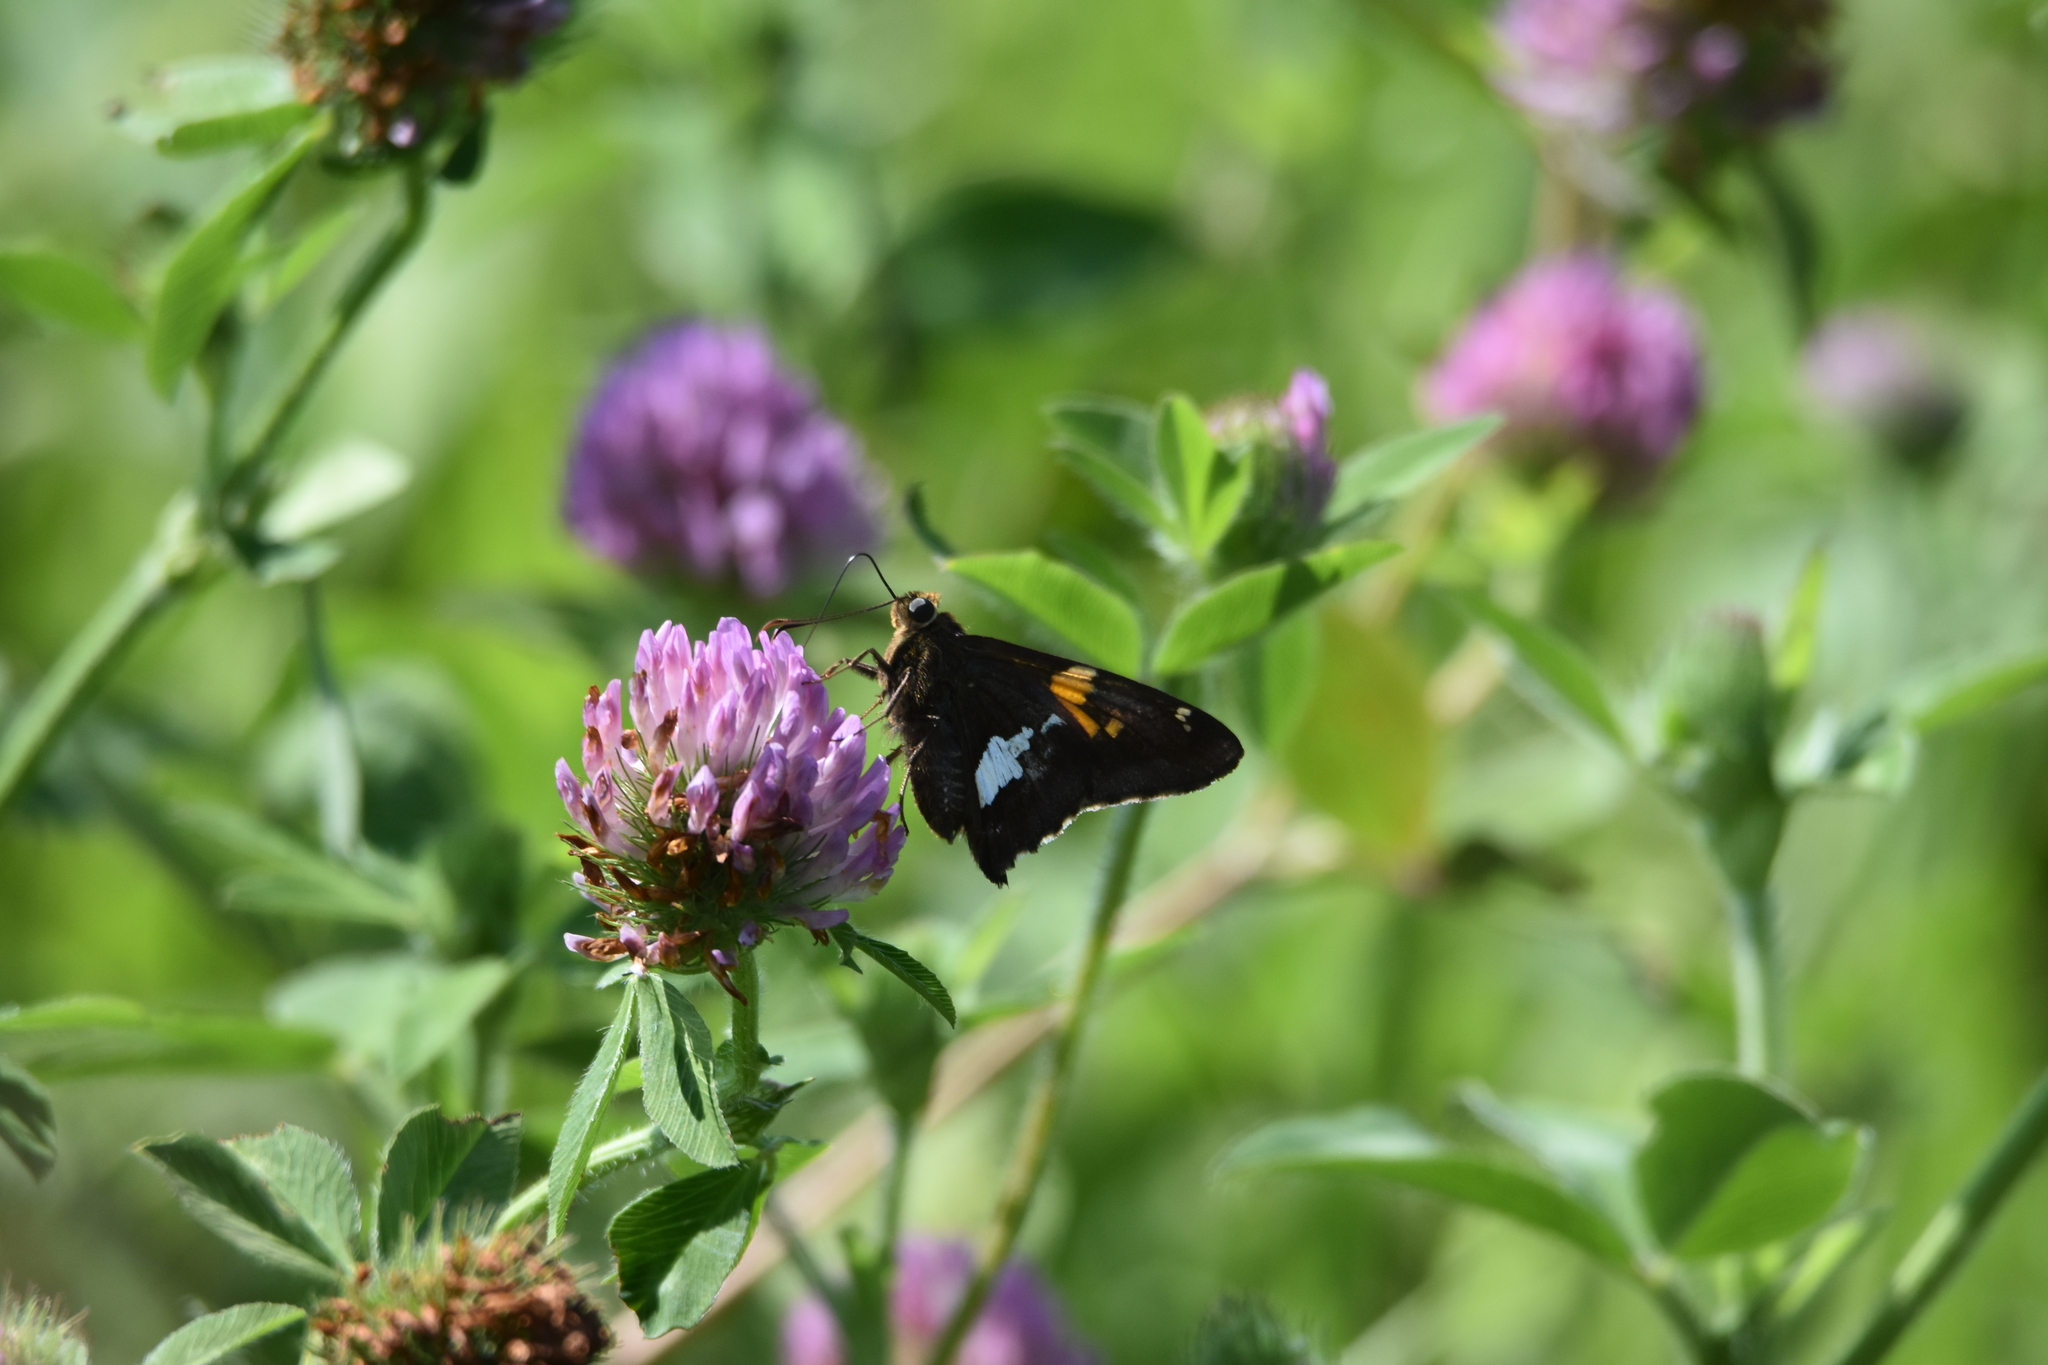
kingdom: Animalia
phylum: Arthropoda
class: Insecta
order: Lepidoptera
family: Hesperiidae
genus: Epargyreus
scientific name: Epargyreus clarus
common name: Silver-spotted skipper
